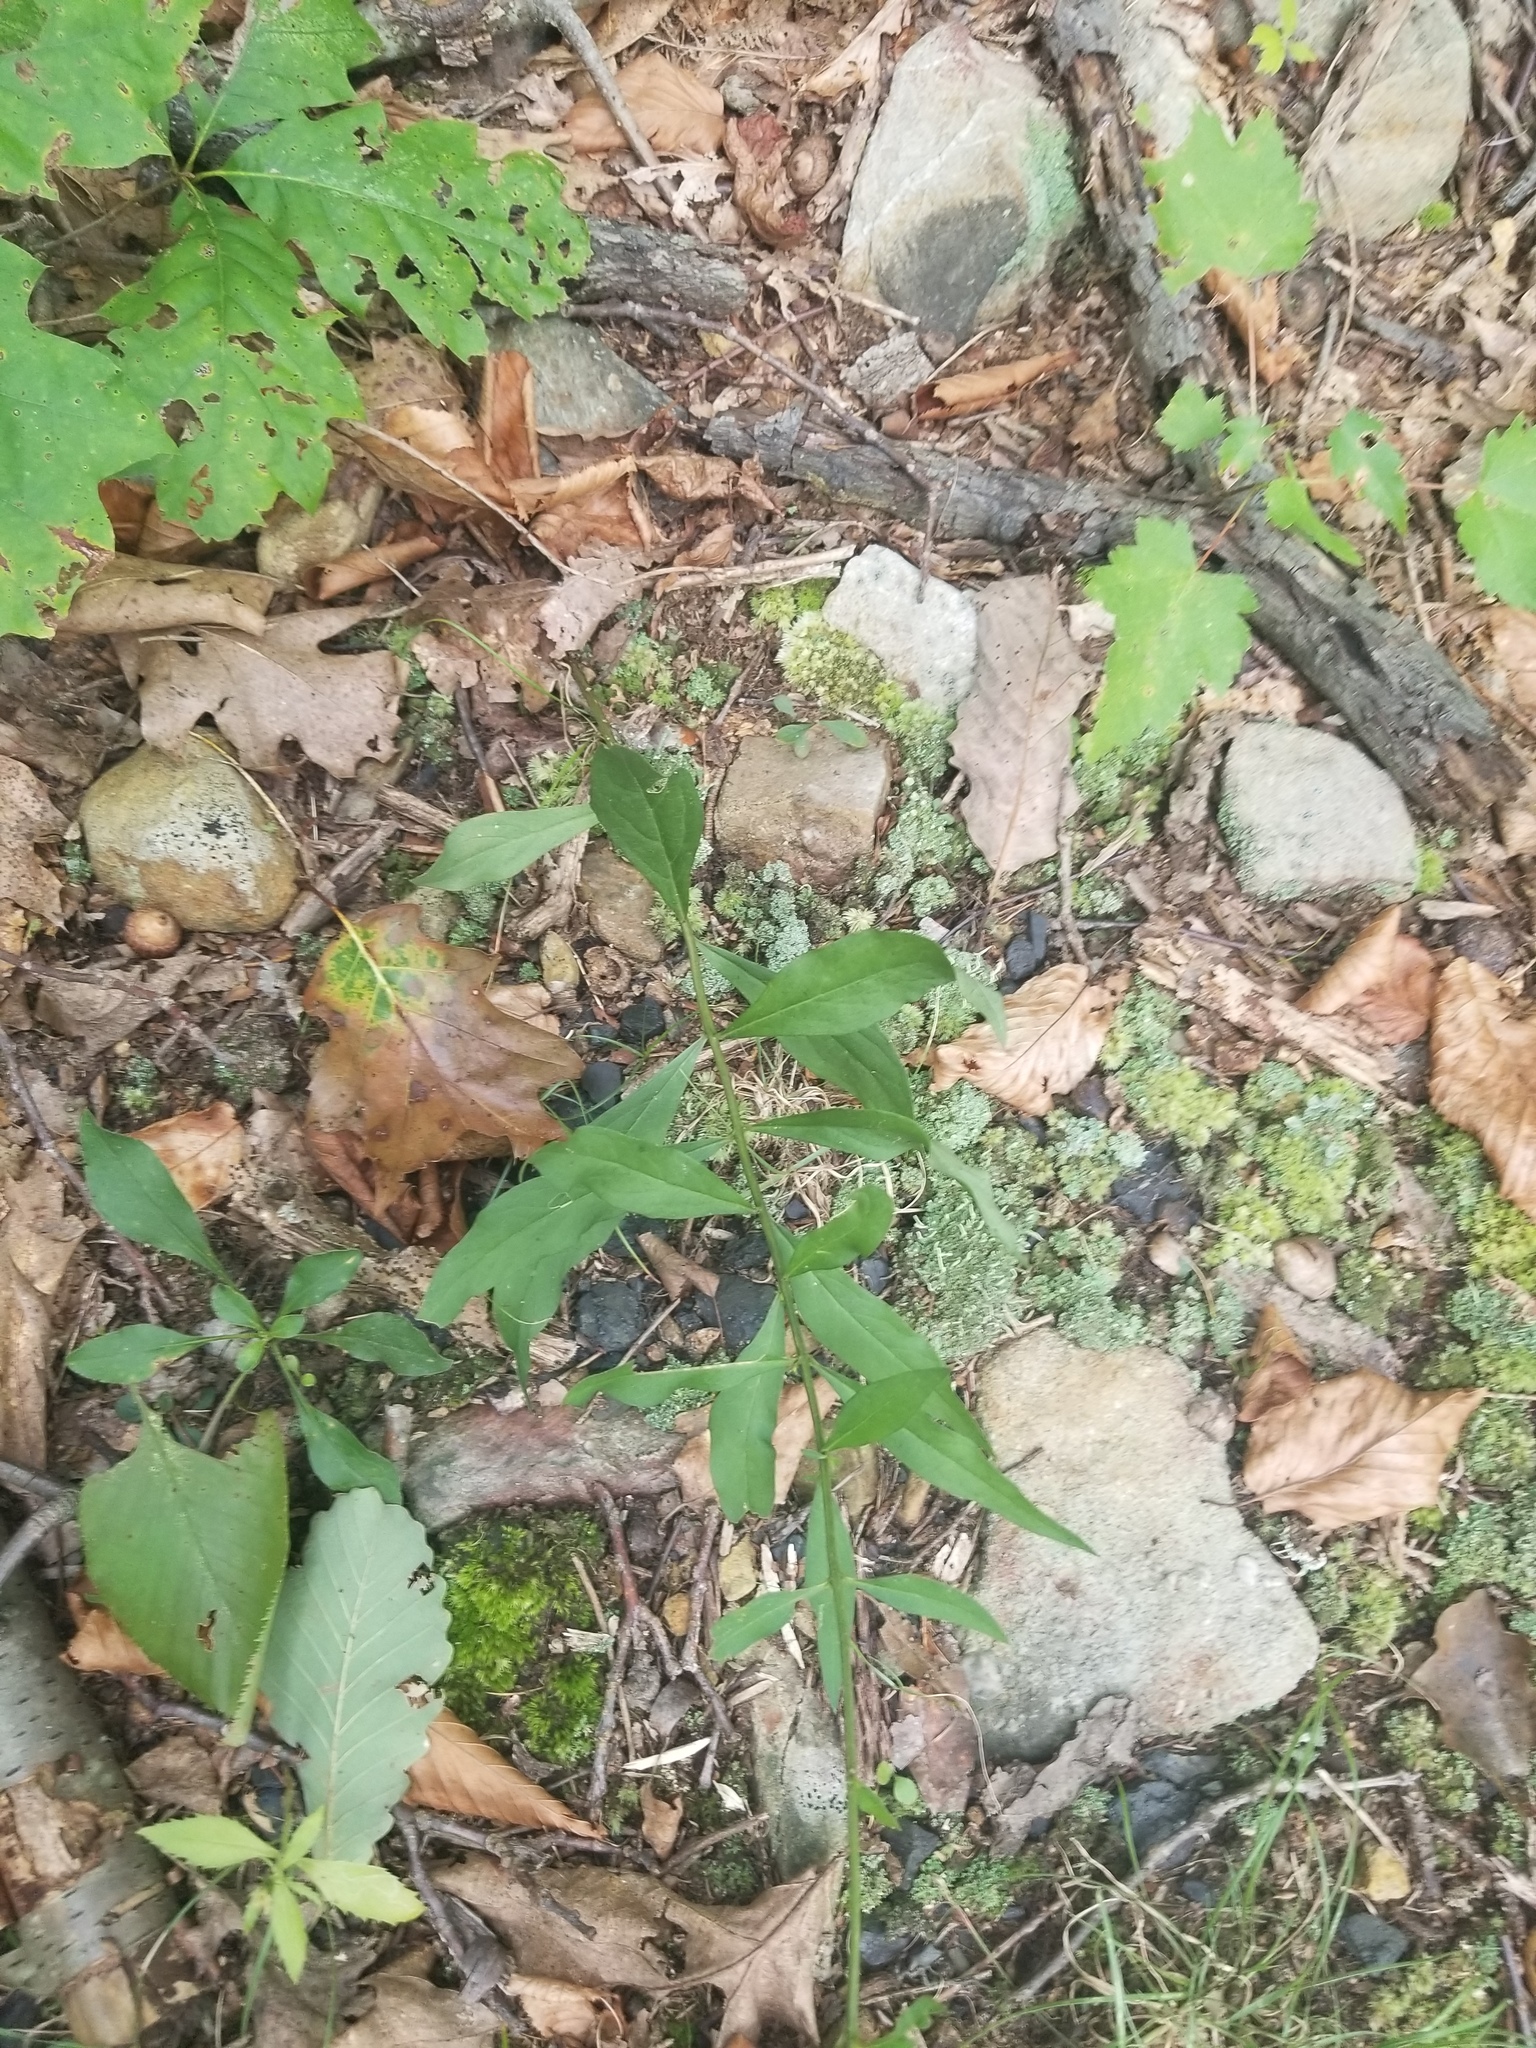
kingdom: Plantae
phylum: Tracheophyta
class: Magnoliopsida
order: Lamiales
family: Orobanchaceae
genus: Aureolaria
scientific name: Aureolaria levigata
